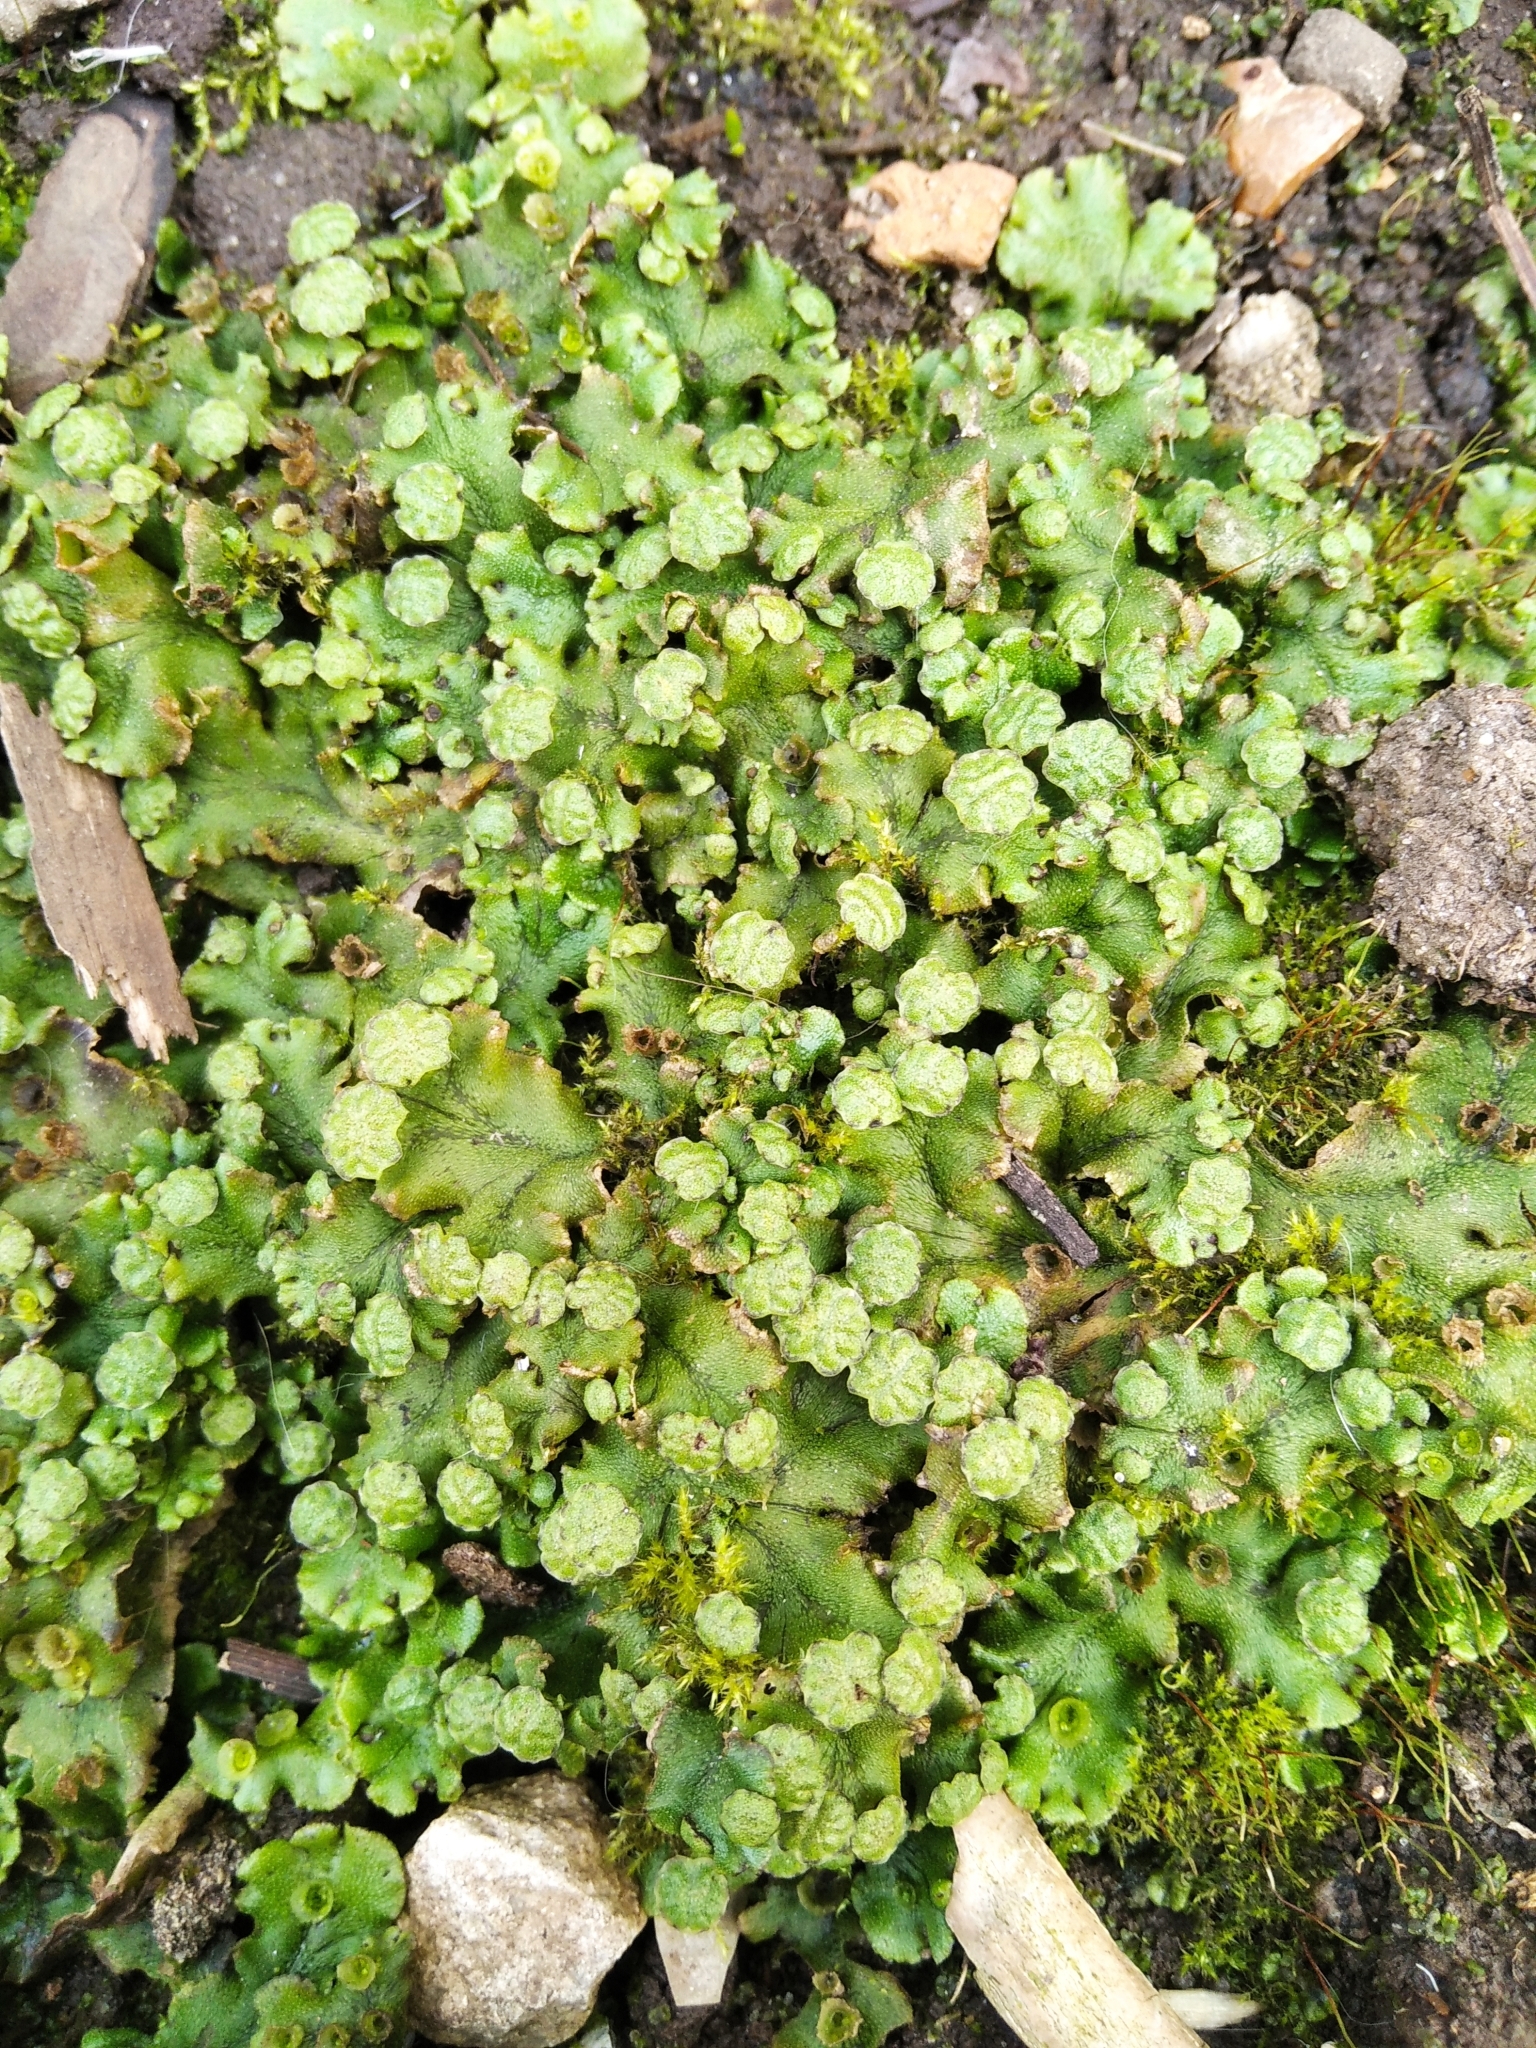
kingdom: Plantae
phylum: Marchantiophyta
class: Marchantiopsida
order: Marchantiales
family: Marchantiaceae
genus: Marchantia
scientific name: Marchantia polymorpha
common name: Common liverwort
